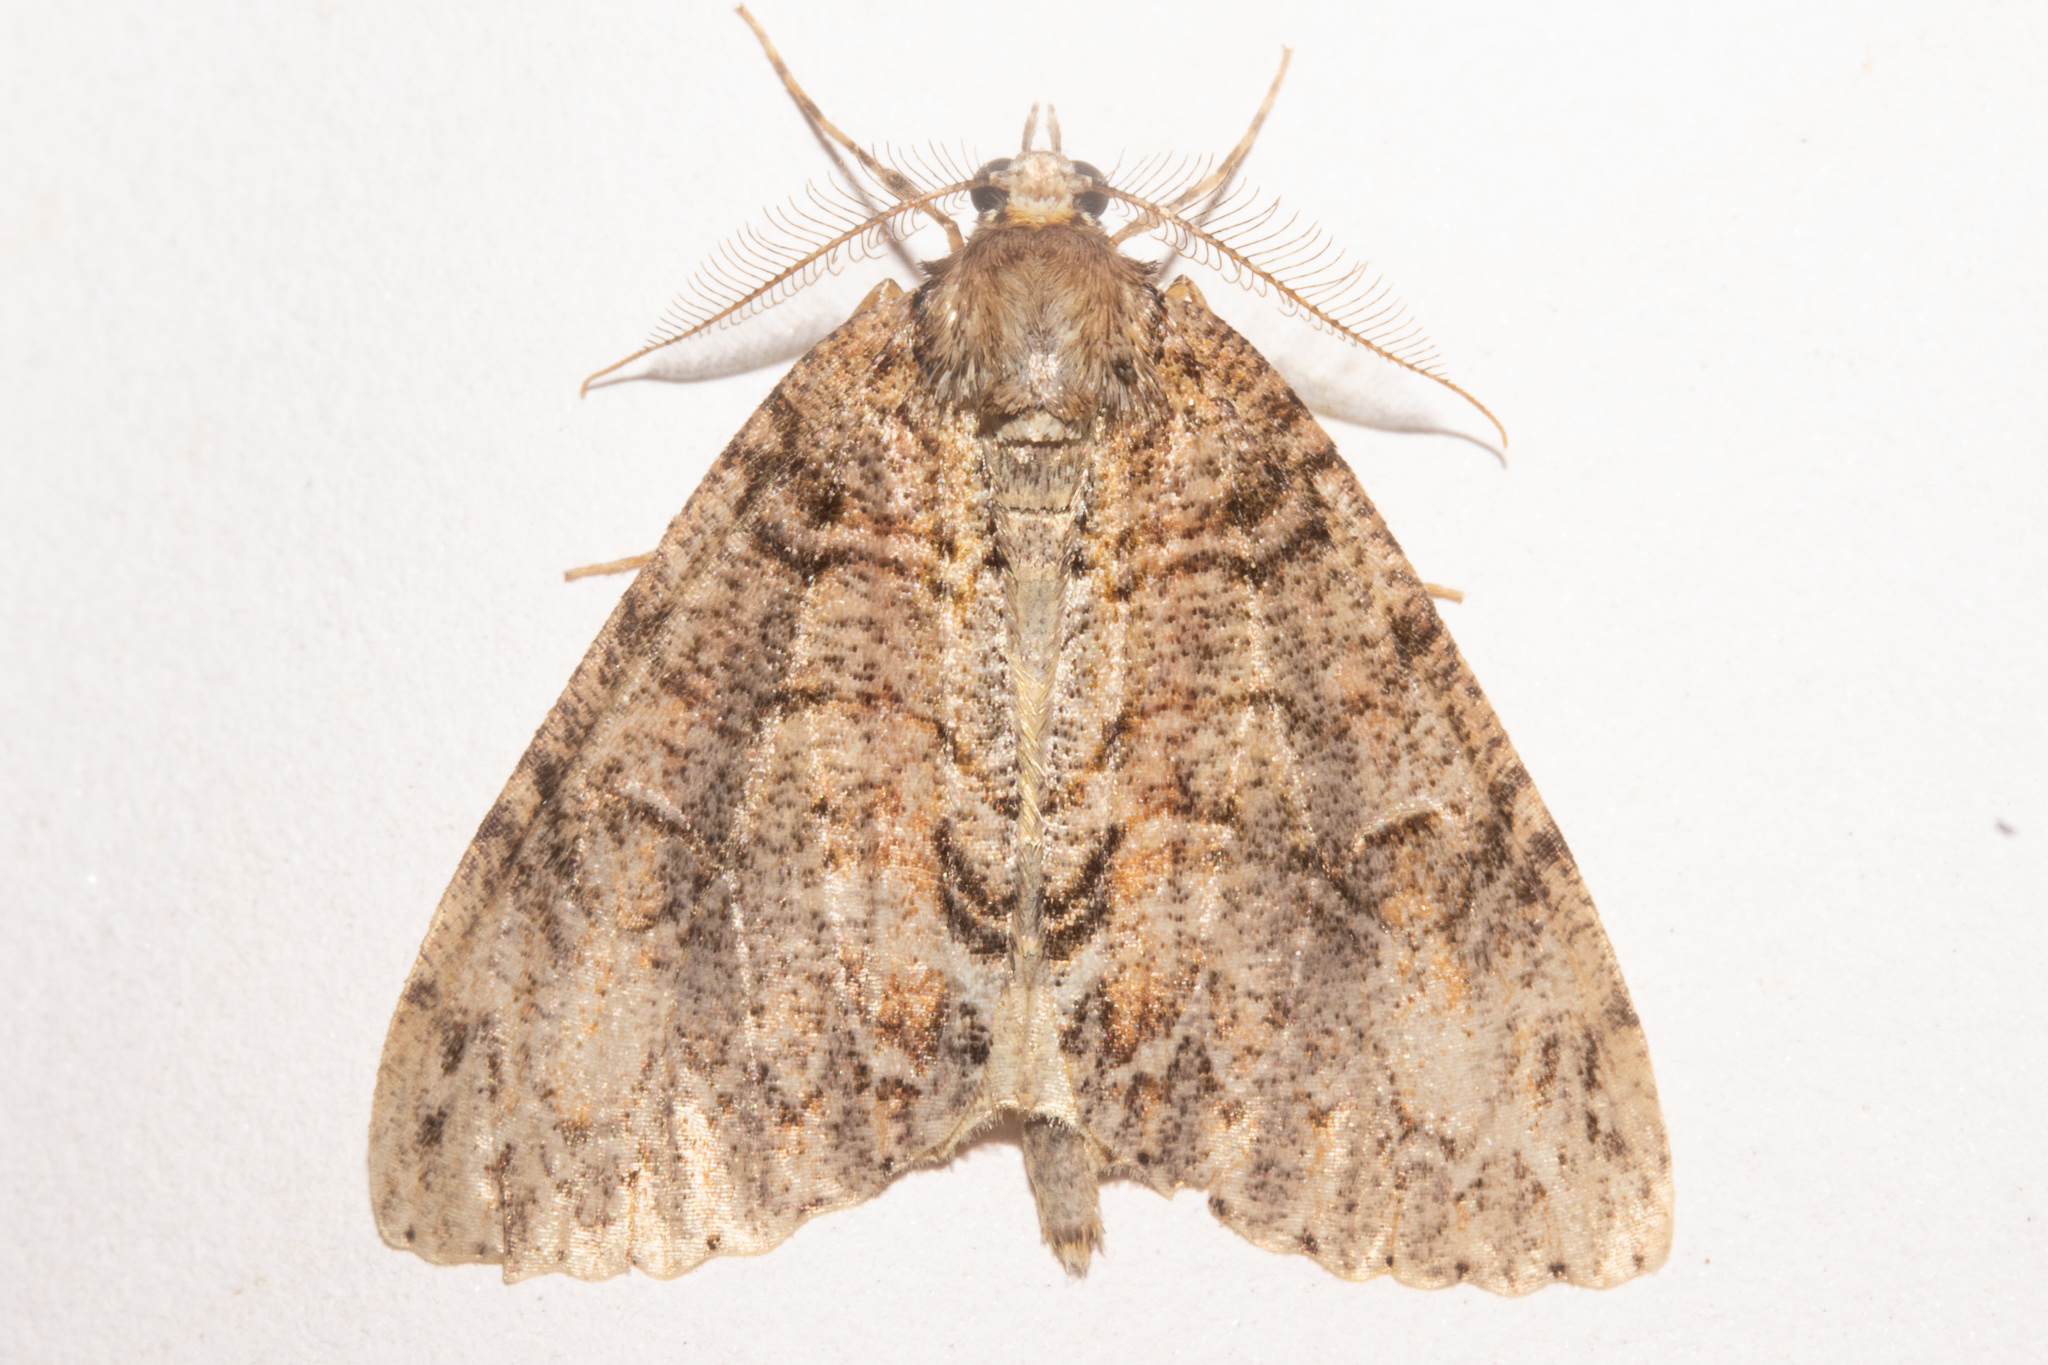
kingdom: Animalia
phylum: Arthropoda
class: Insecta
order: Lepidoptera
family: Geometridae
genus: Pseudocoremia
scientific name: Pseudocoremia suavis
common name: Common forest looper
